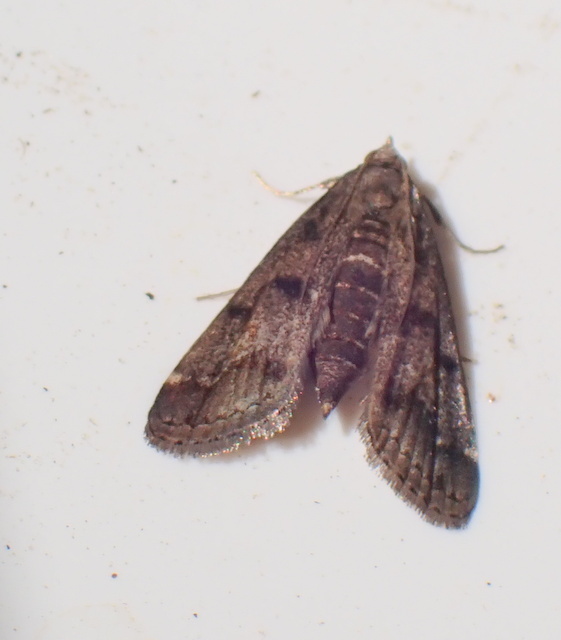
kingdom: Animalia
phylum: Arthropoda
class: Insecta
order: Lepidoptera
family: Crambidae
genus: Elophila
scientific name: Elophila obliteralis
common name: Waterlily leafcutter moth
